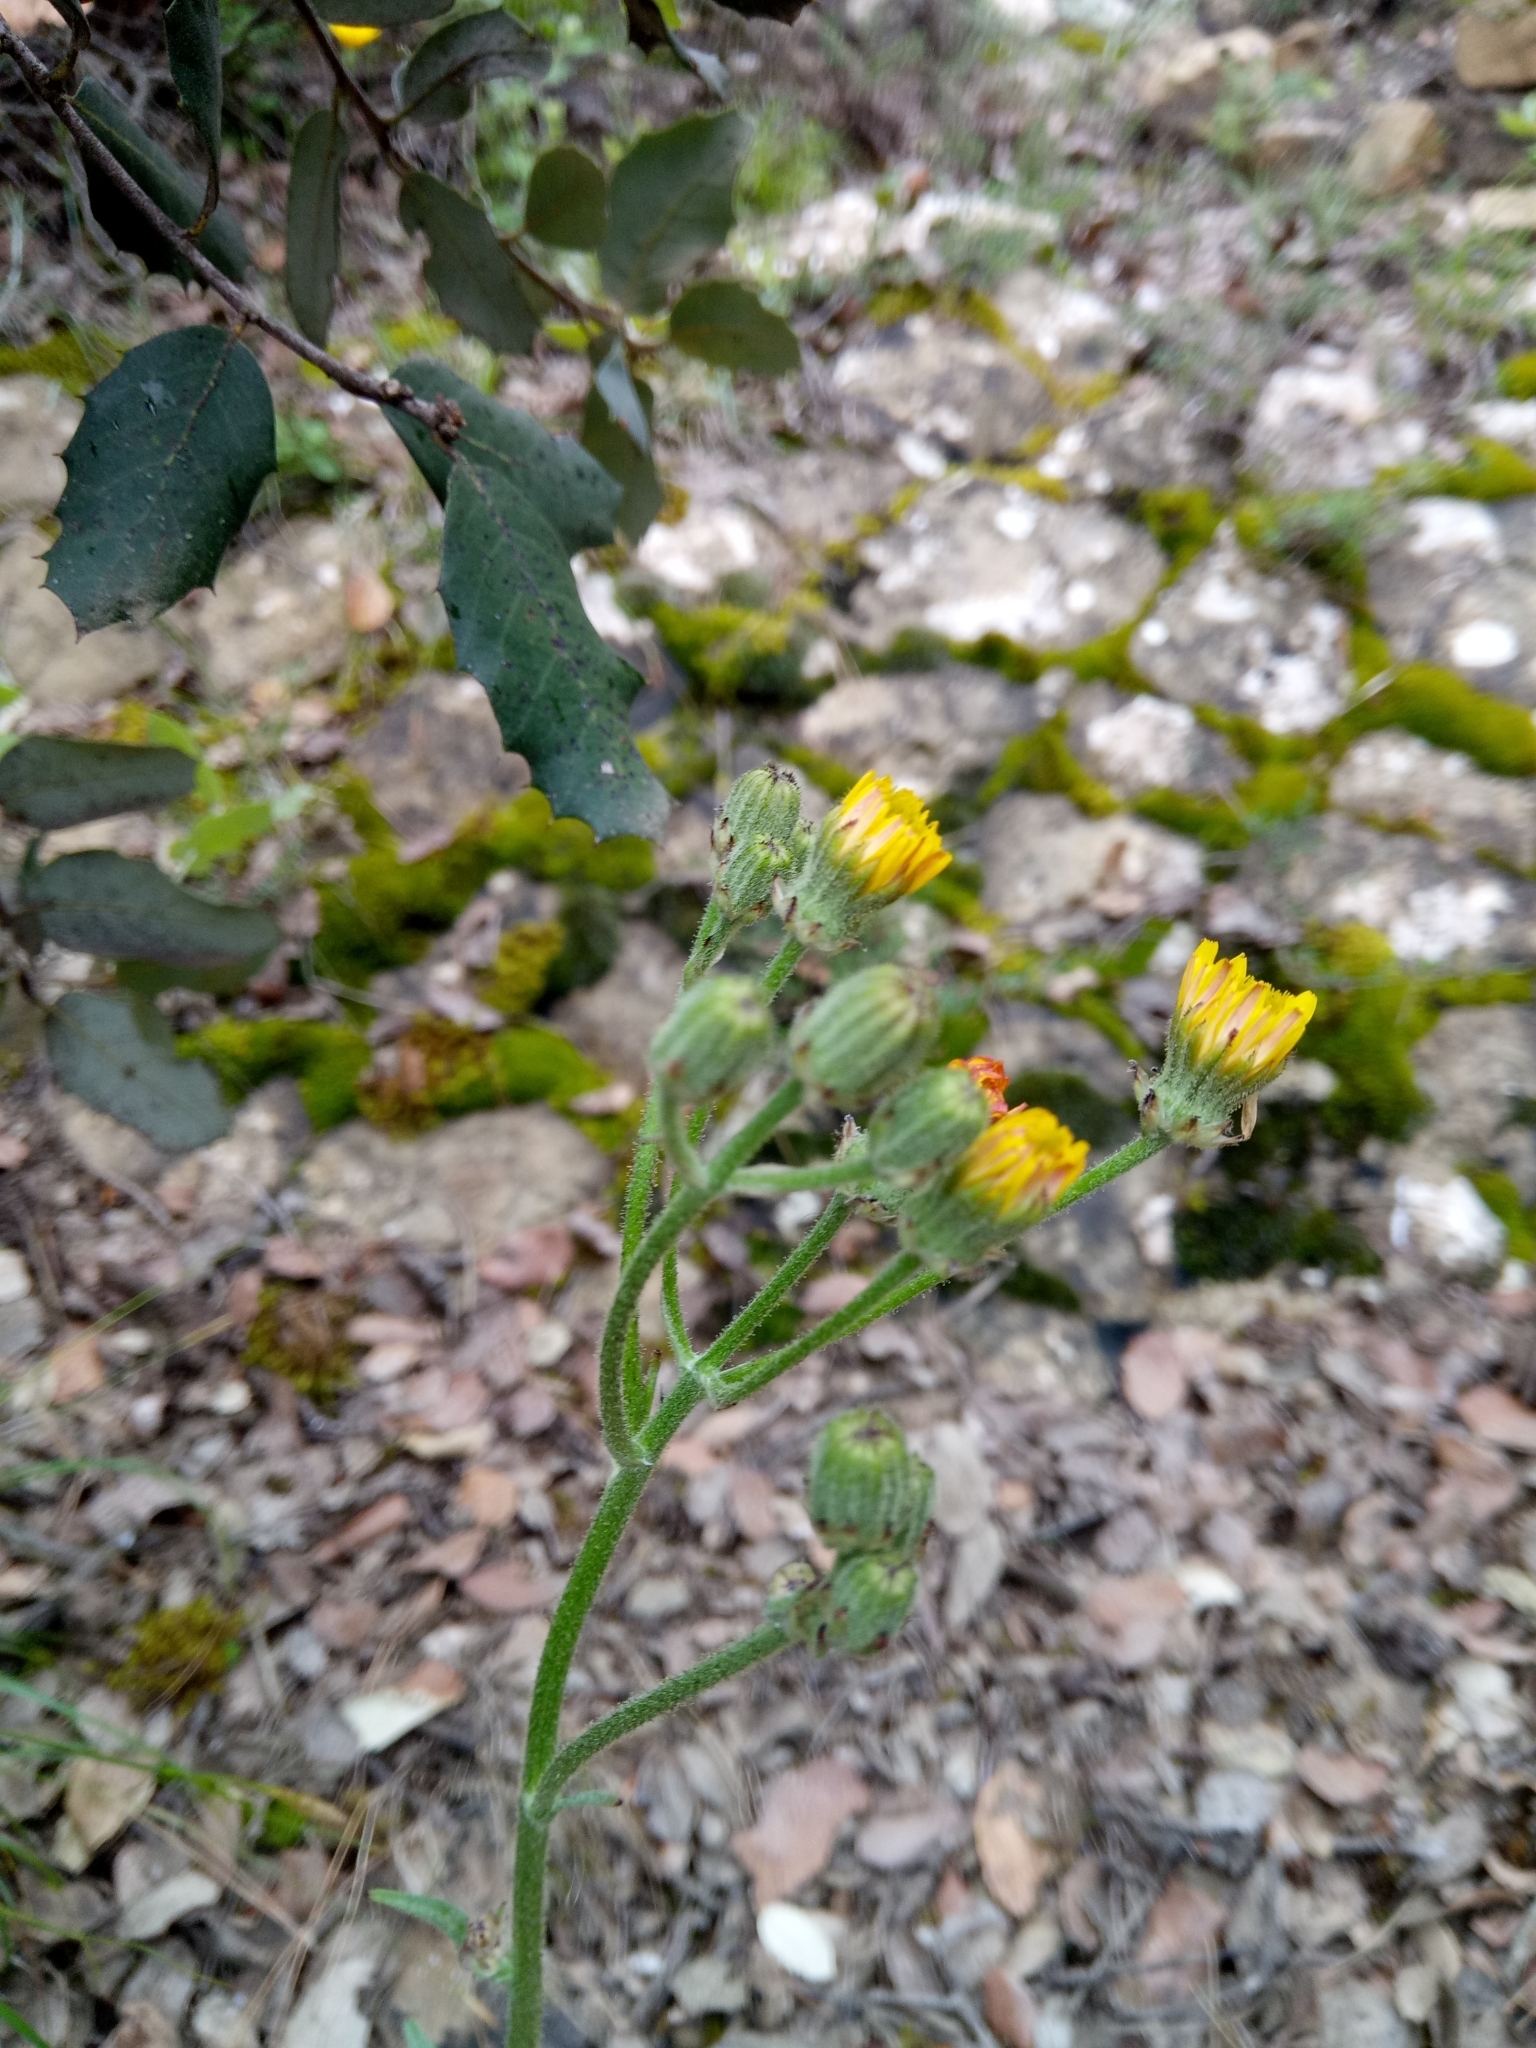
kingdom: Plantae
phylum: Tracheophyta
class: Magnoliopsida
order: Asterales
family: Asteraceae
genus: Crepis
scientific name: Crepis vesicaria
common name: Beaked hawksbeard
